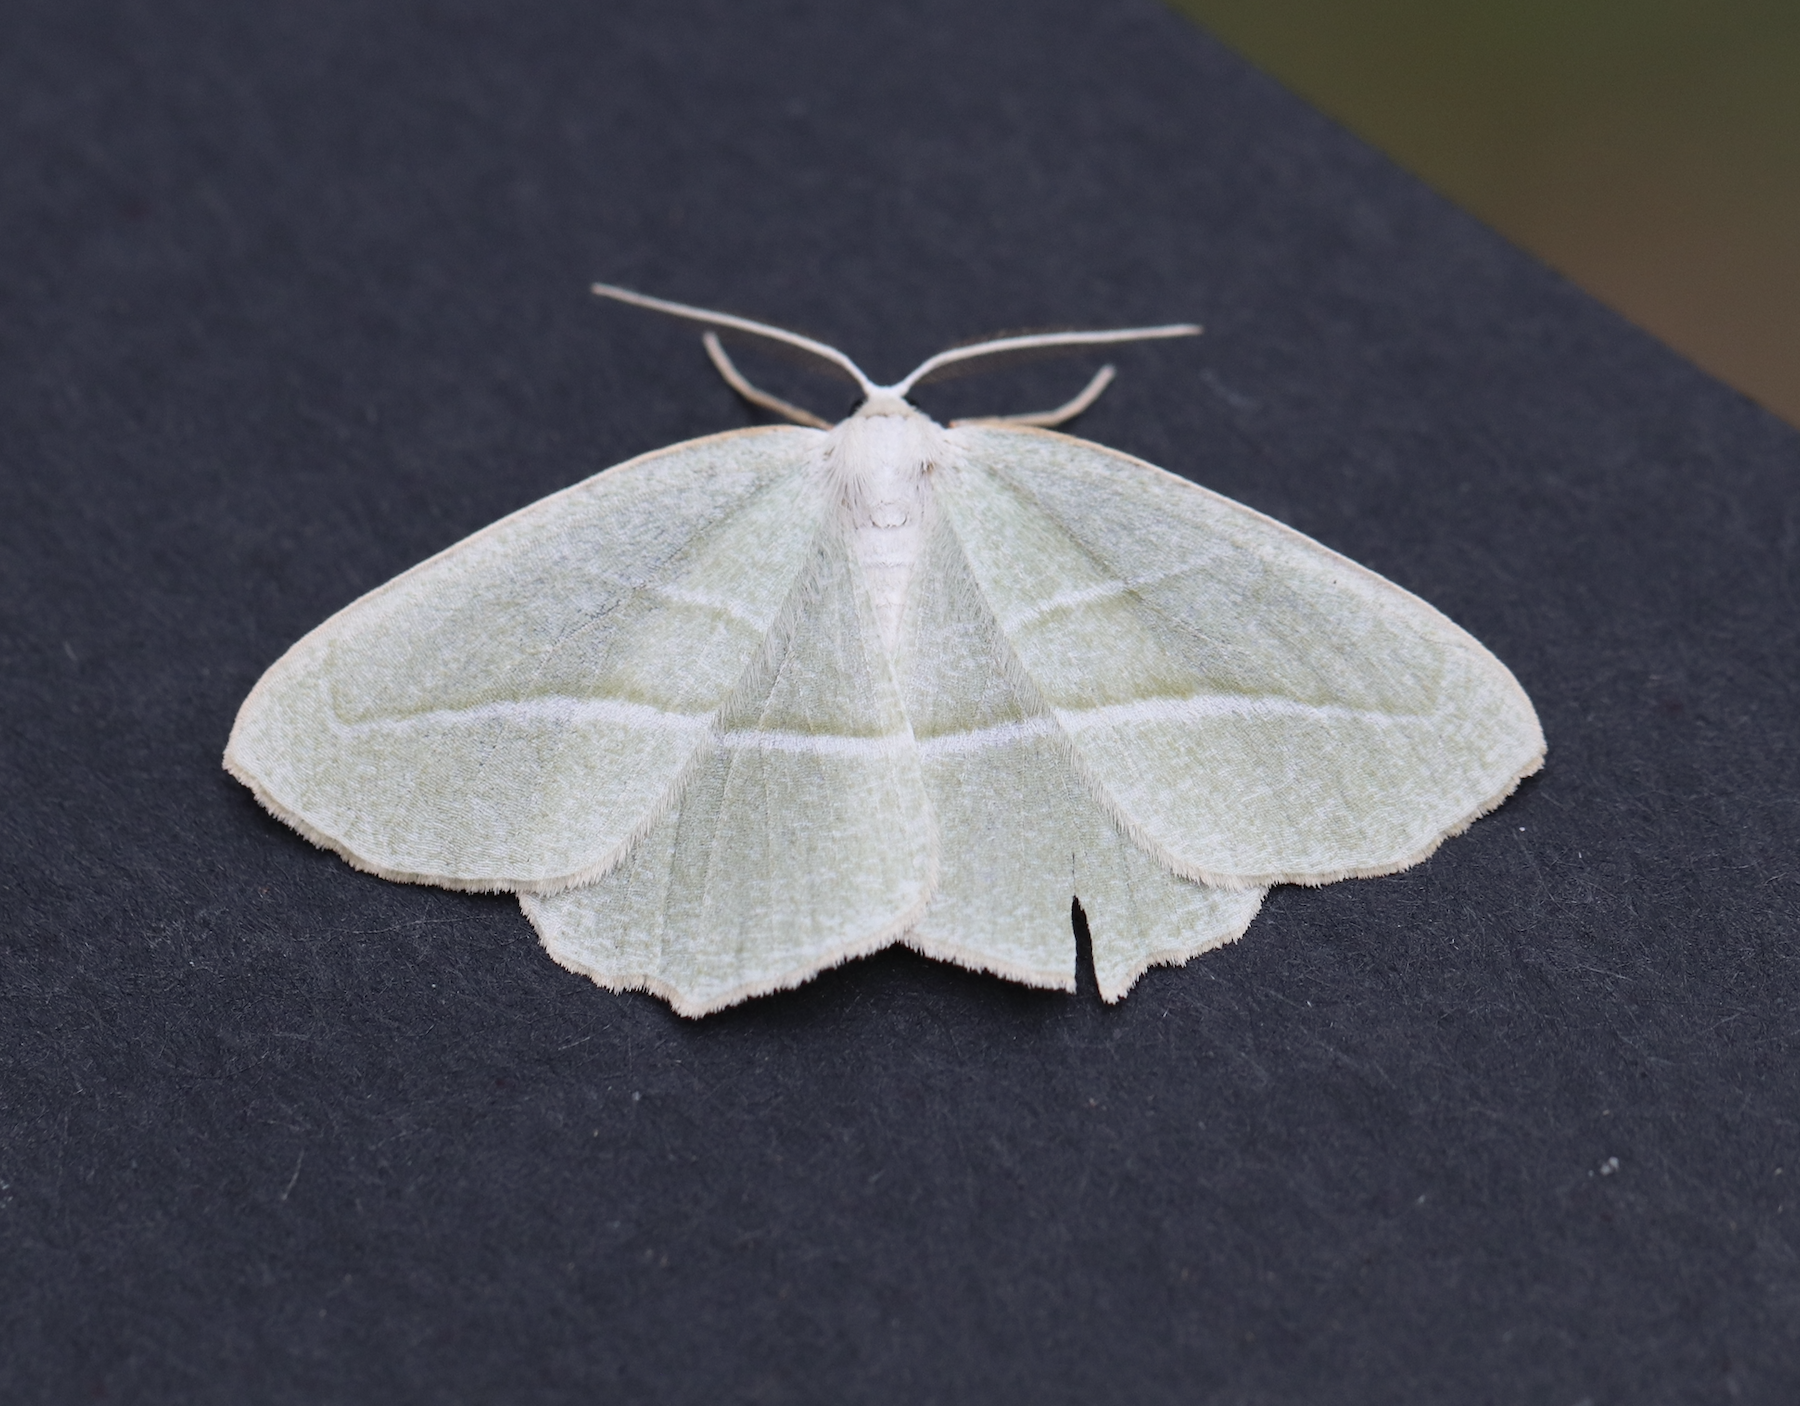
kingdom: Animalia
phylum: Arthropoda
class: Insecta
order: Lepidoptera
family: Geometridae
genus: Campaea
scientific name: Campaea perlata
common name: Fringed looper
